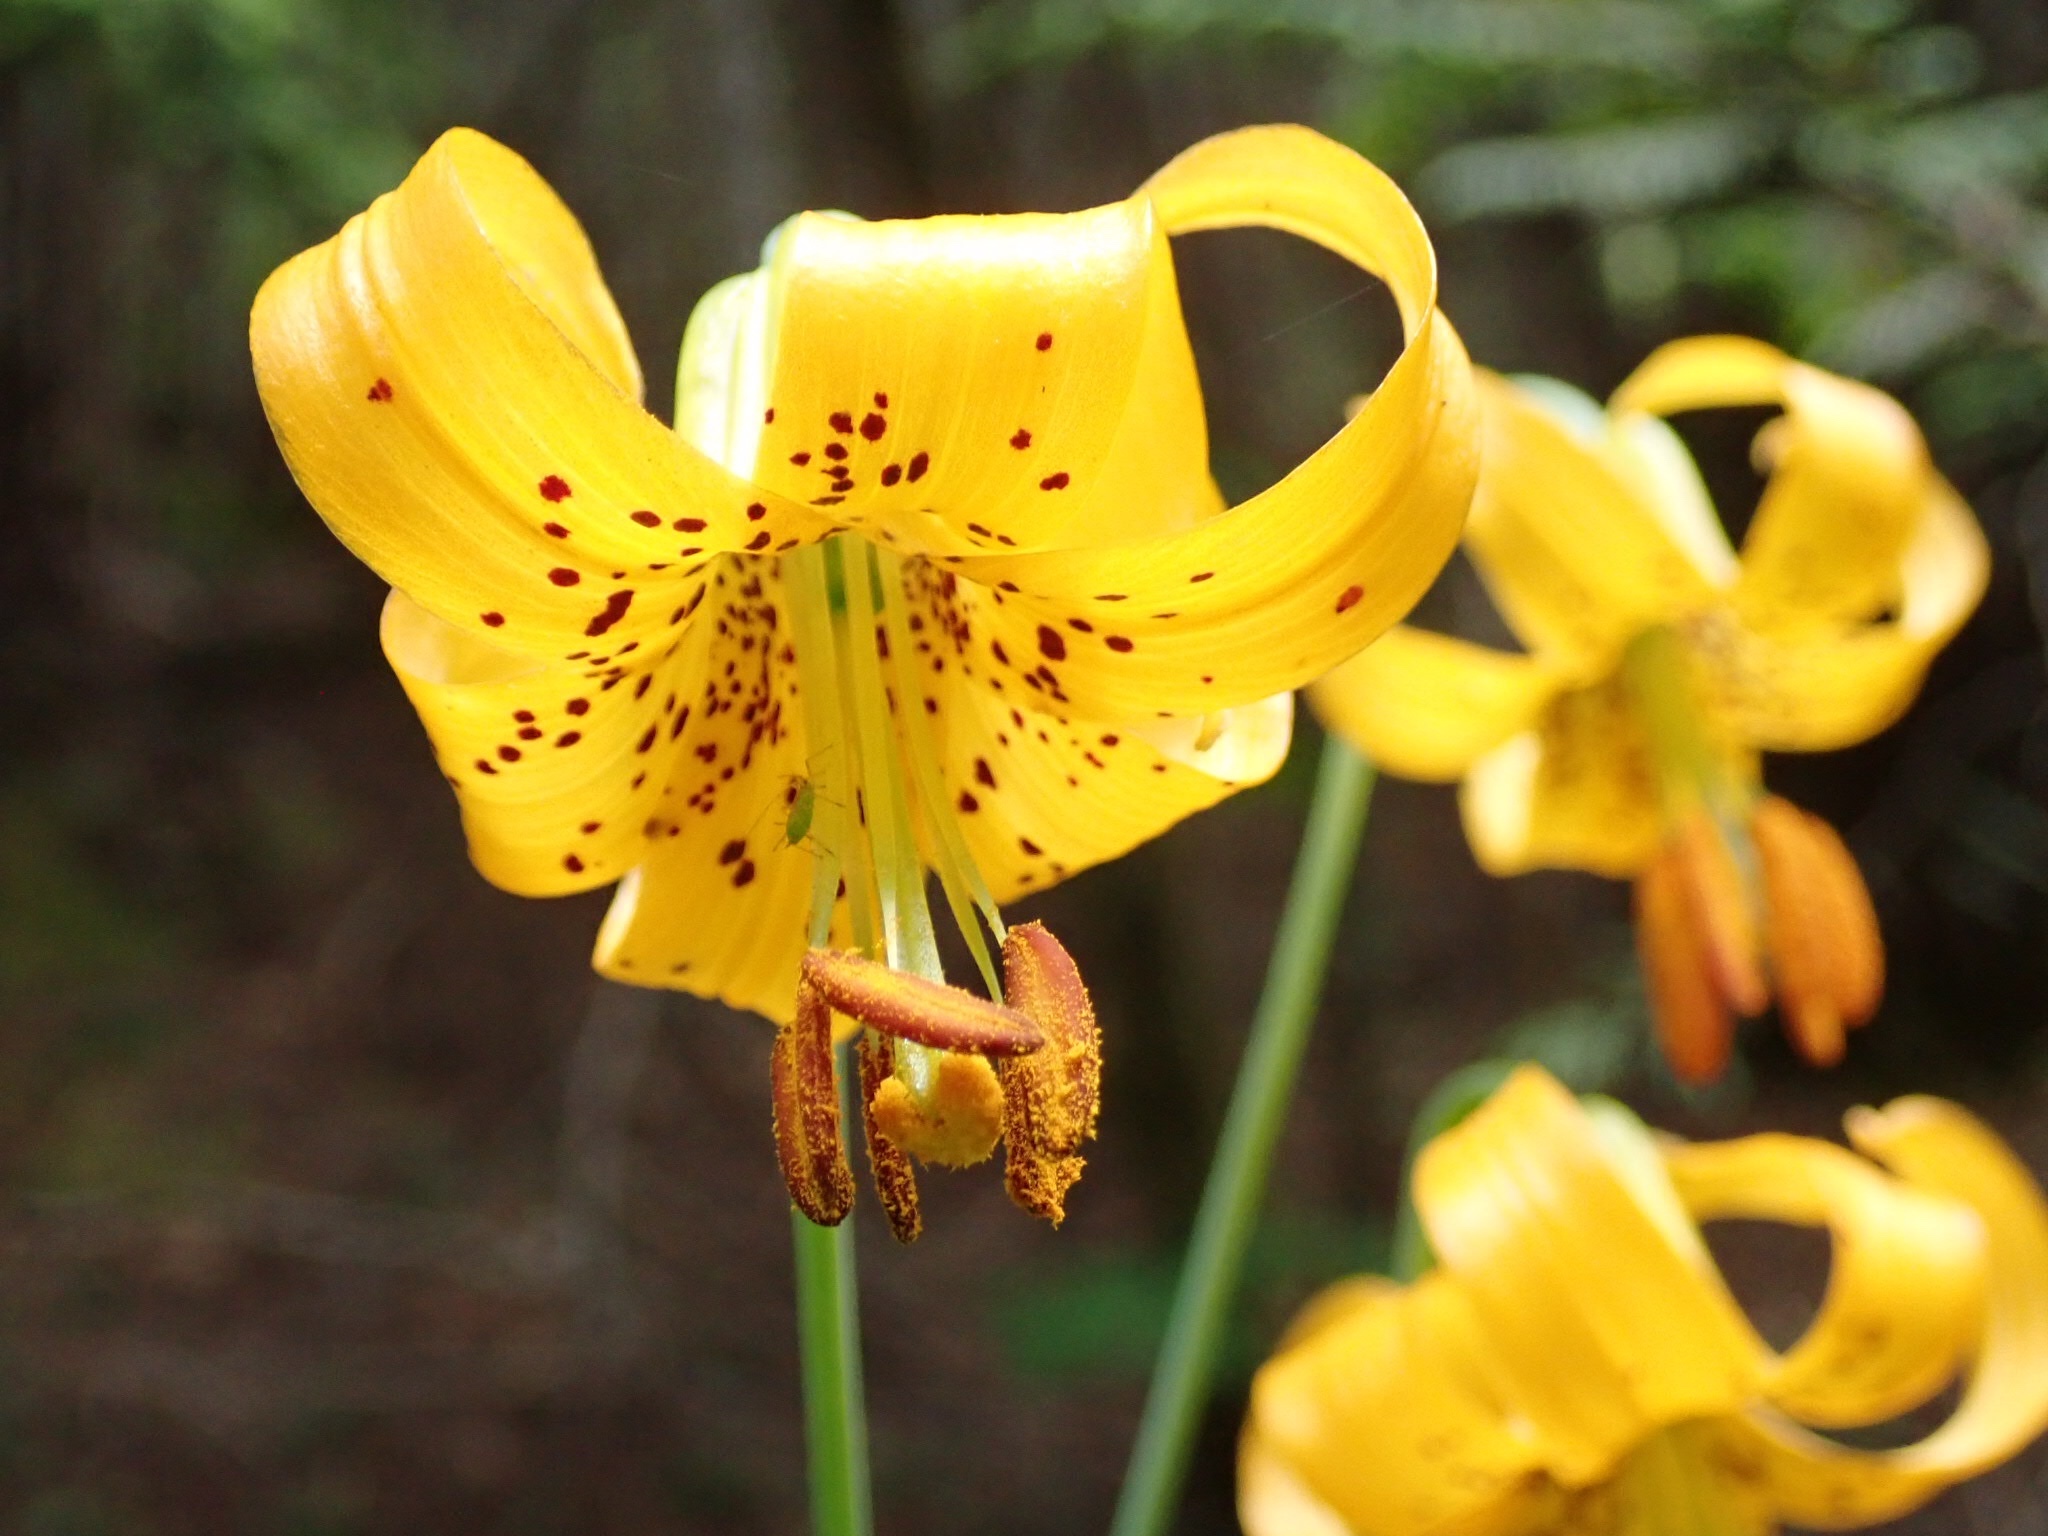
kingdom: Plantae
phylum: Tracheophyta
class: Liliopsida
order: Liliales
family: Liliaceae
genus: Lilium
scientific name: Lilium columbianum
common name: Columbia lily
